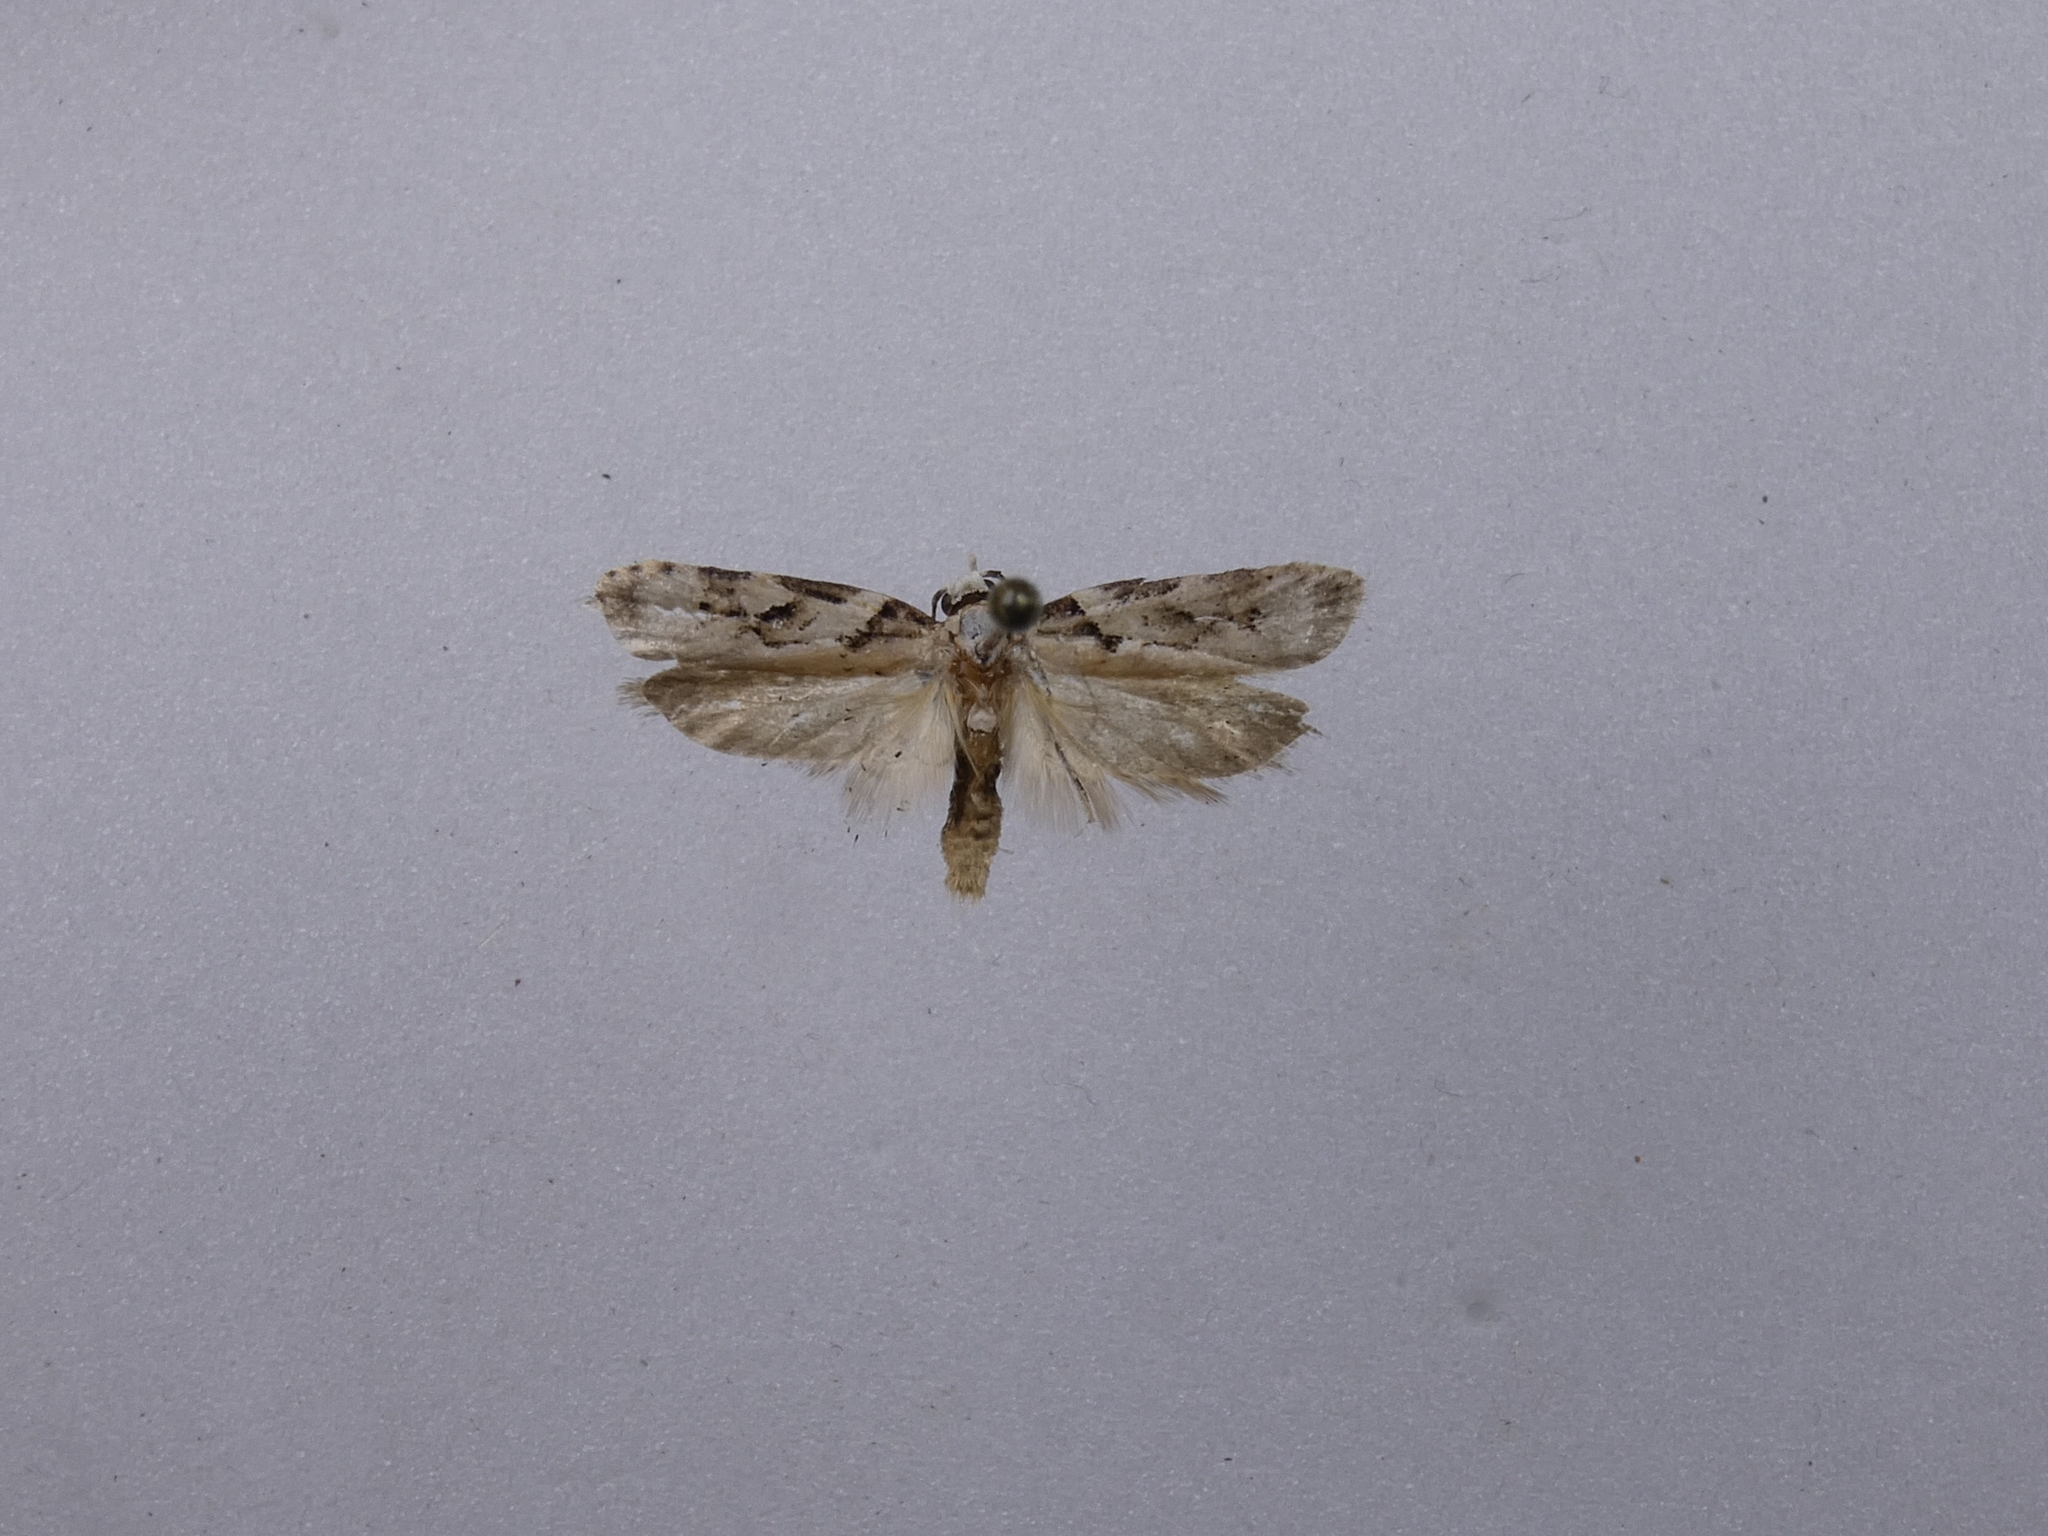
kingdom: Animalia
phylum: Arthropoda
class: Insecta
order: Lepidoptera
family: Oecophoridae
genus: Izatha
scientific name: Izatha mesoschista
